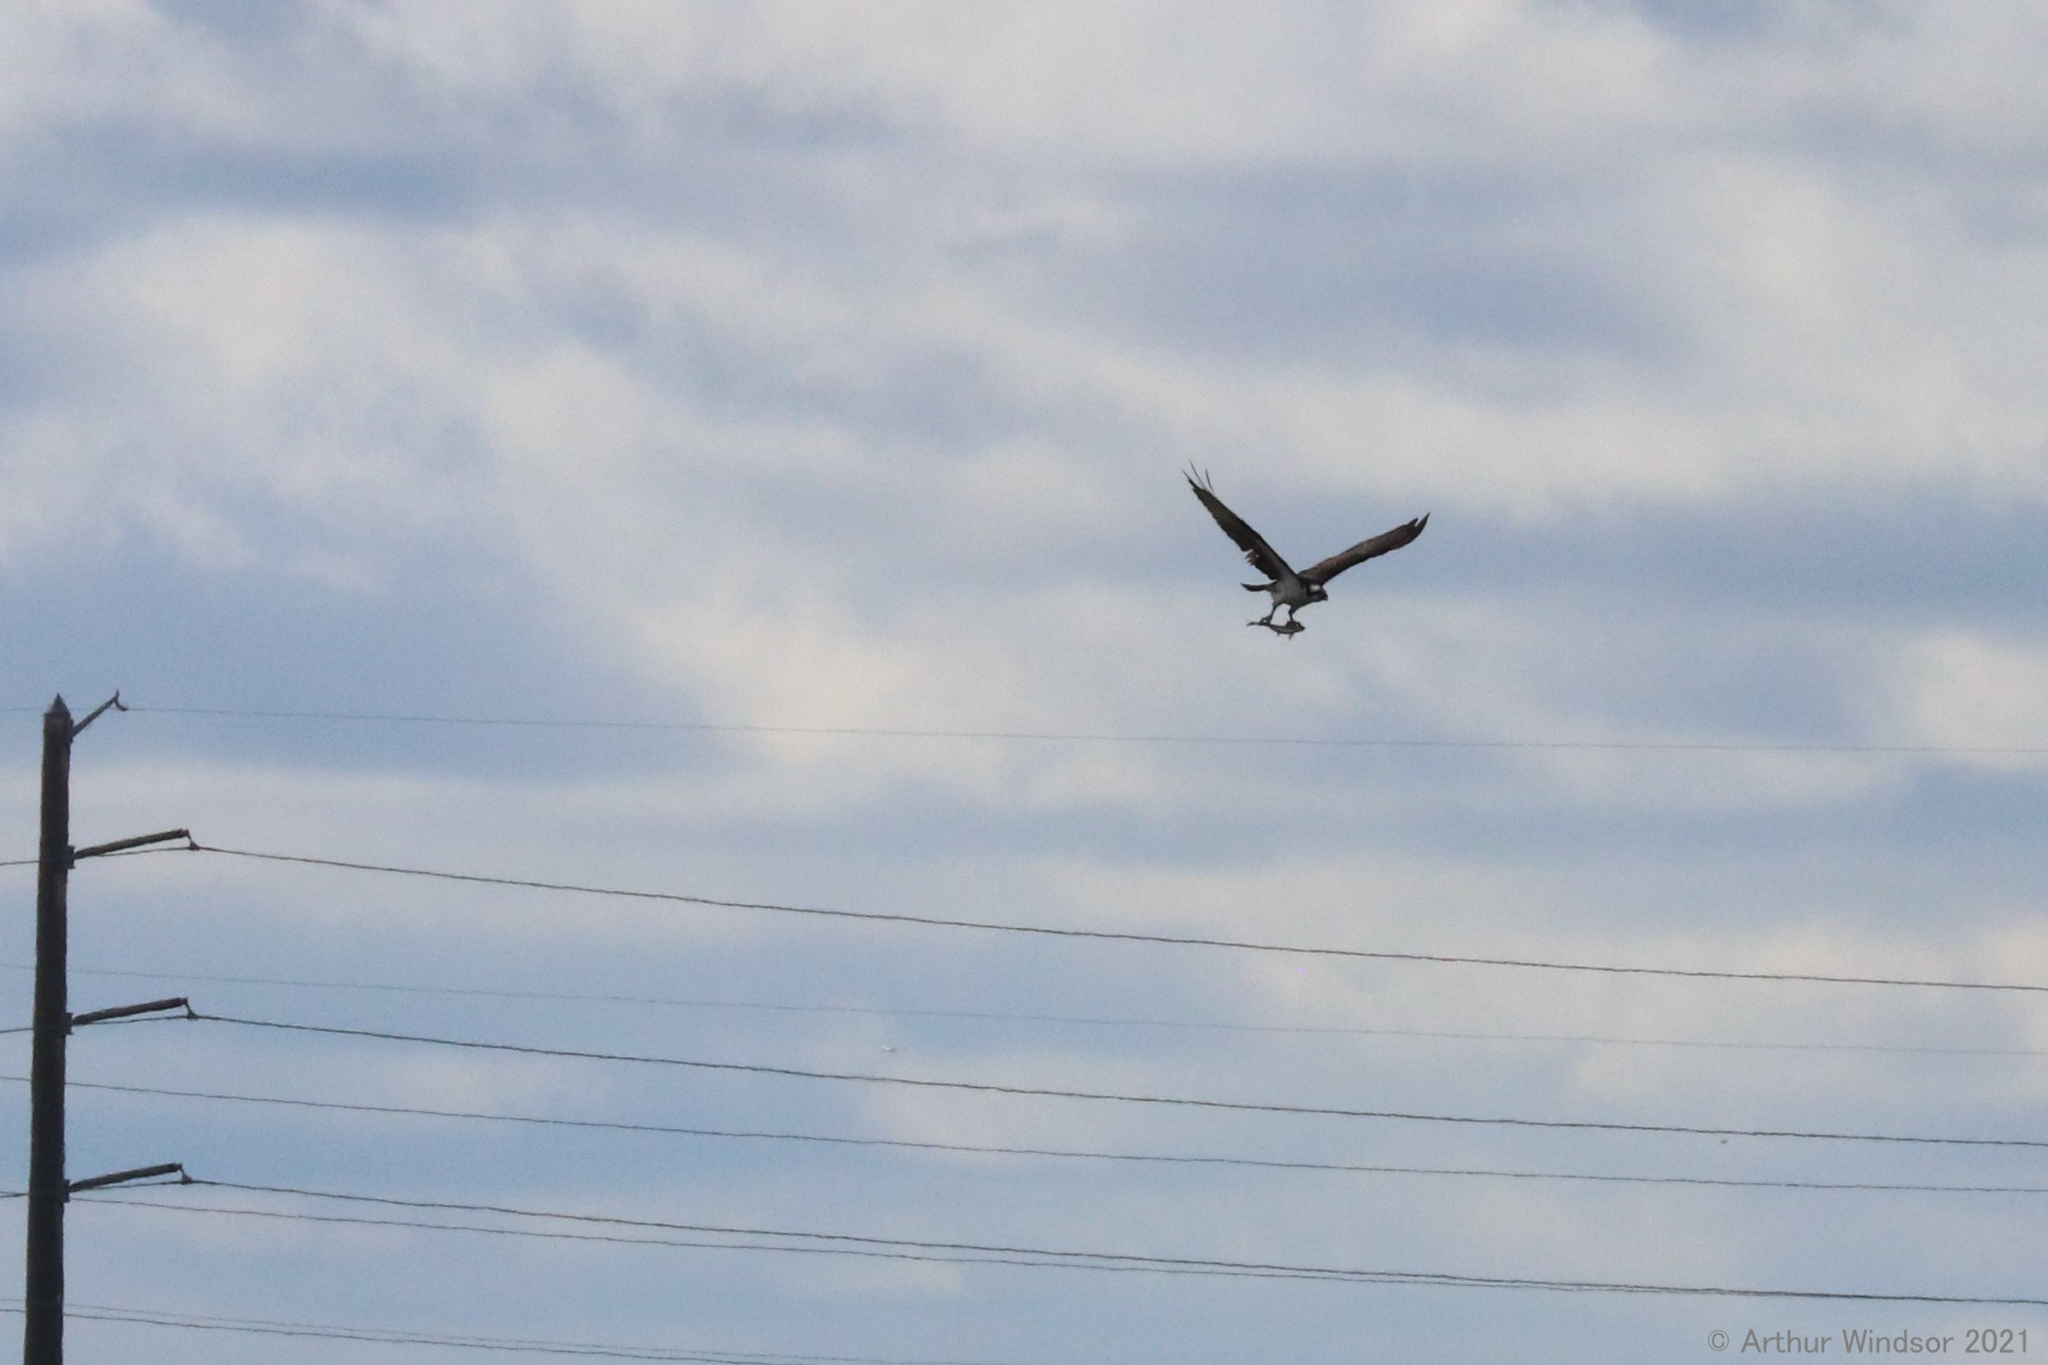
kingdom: Animalia
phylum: Chordata
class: Aves
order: Accipitriformes
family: Pandionidae
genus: Pandion
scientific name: Pandion haliaetus
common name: Osprey
